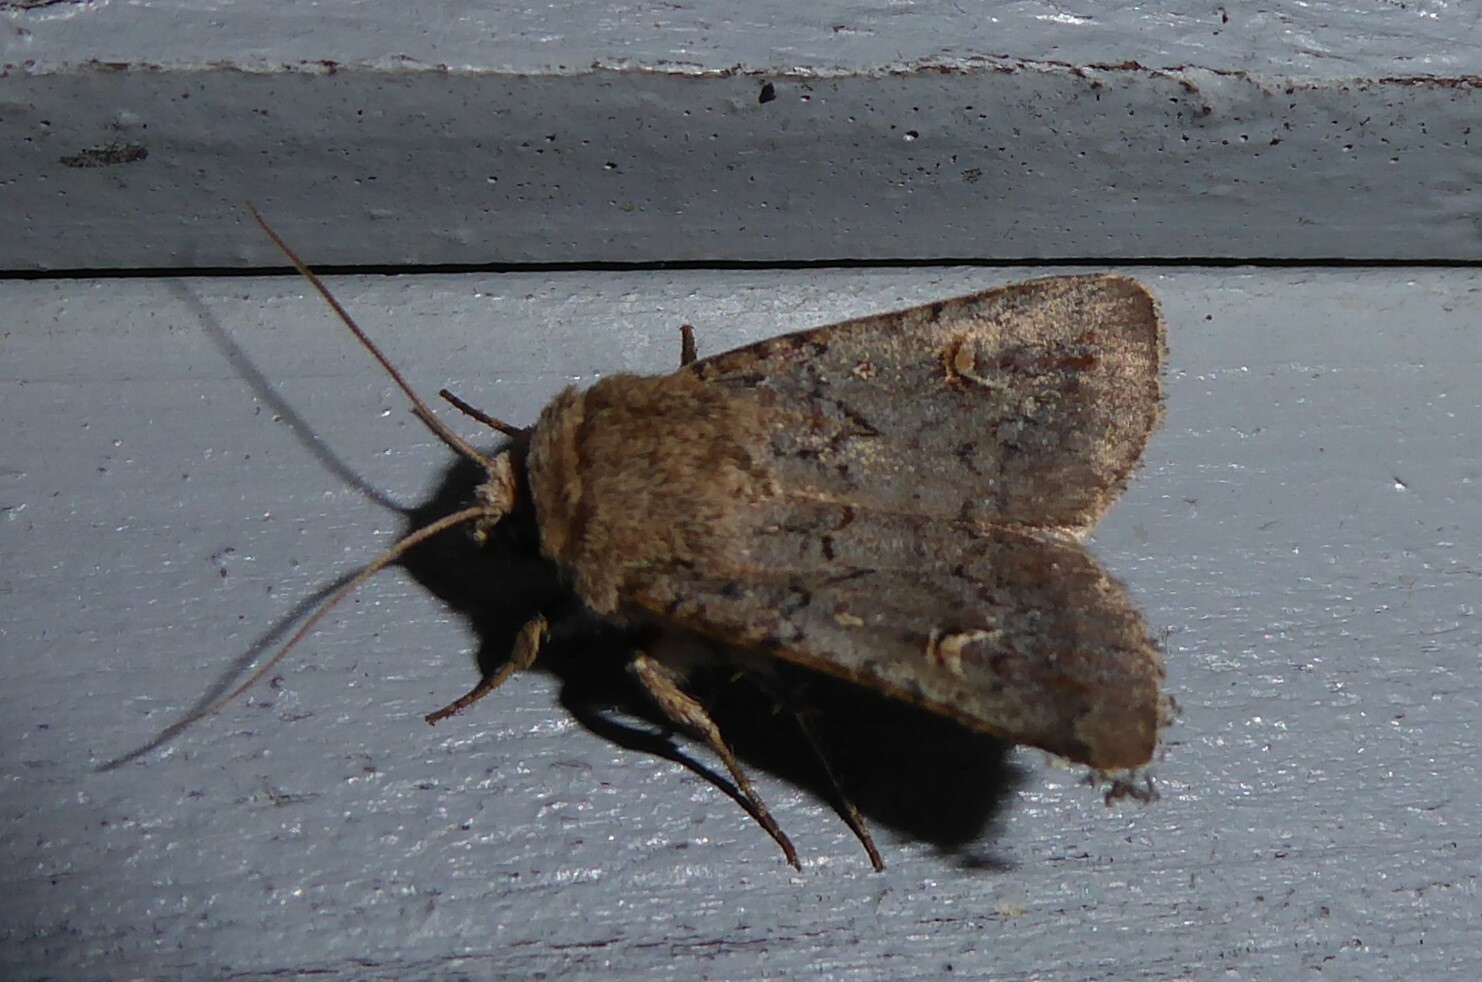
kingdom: Animalia
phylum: Arthropoda
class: Insecta
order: Lepidoptera
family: Noctuidae
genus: Proteuxoa
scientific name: Proteuxoa tetronycha
